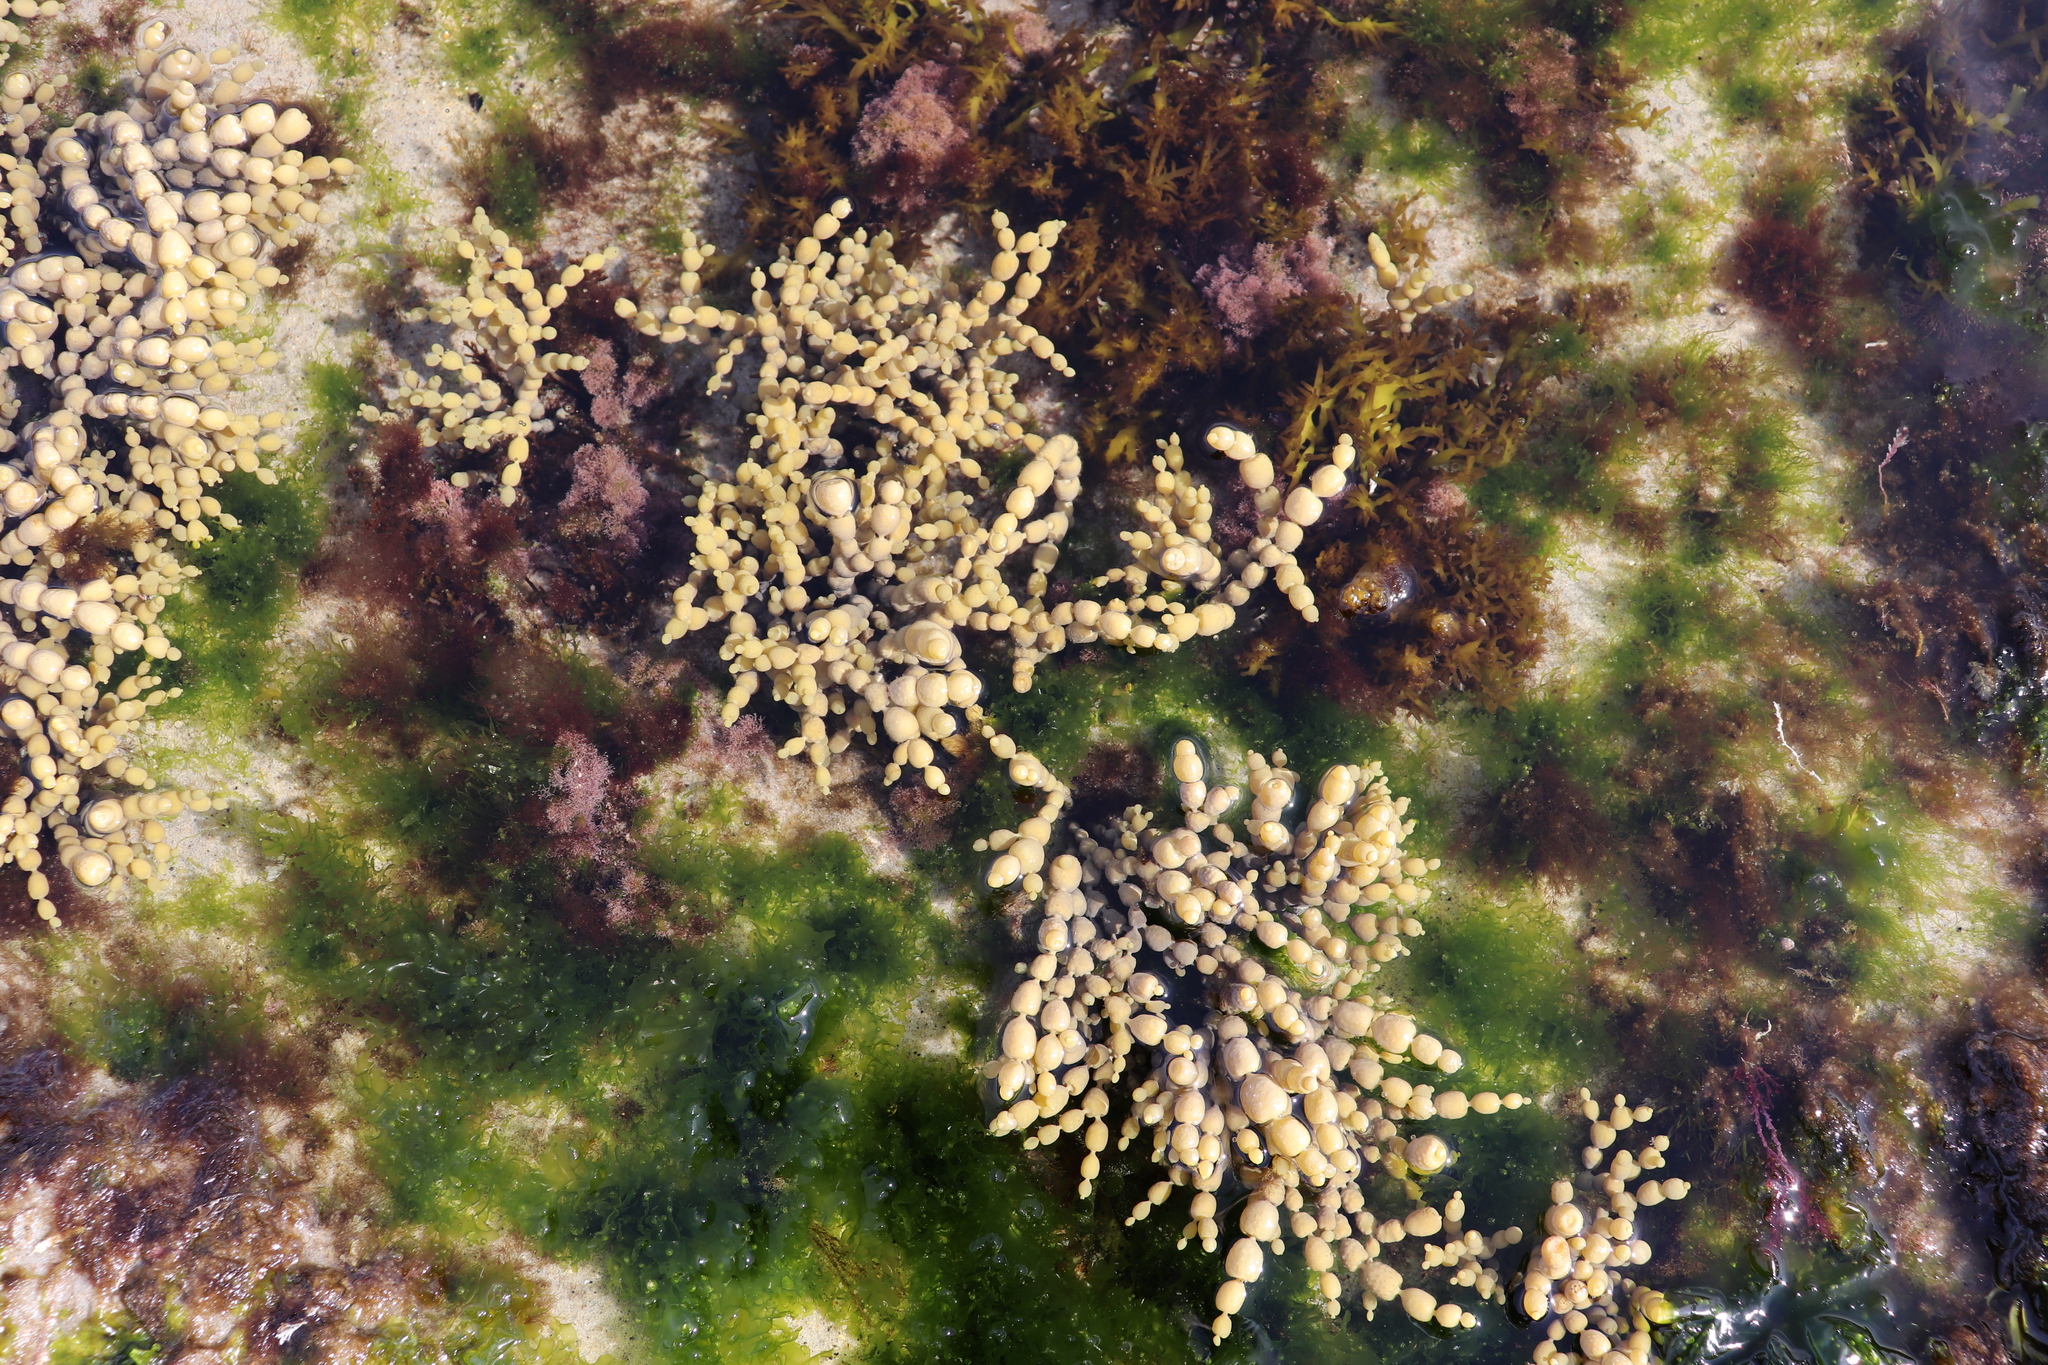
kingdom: Chromista
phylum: Ochrophyta
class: Phaeophyceae
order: Fucales
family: Hormosiraceae
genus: Hormosira
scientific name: Hormosira banksii
